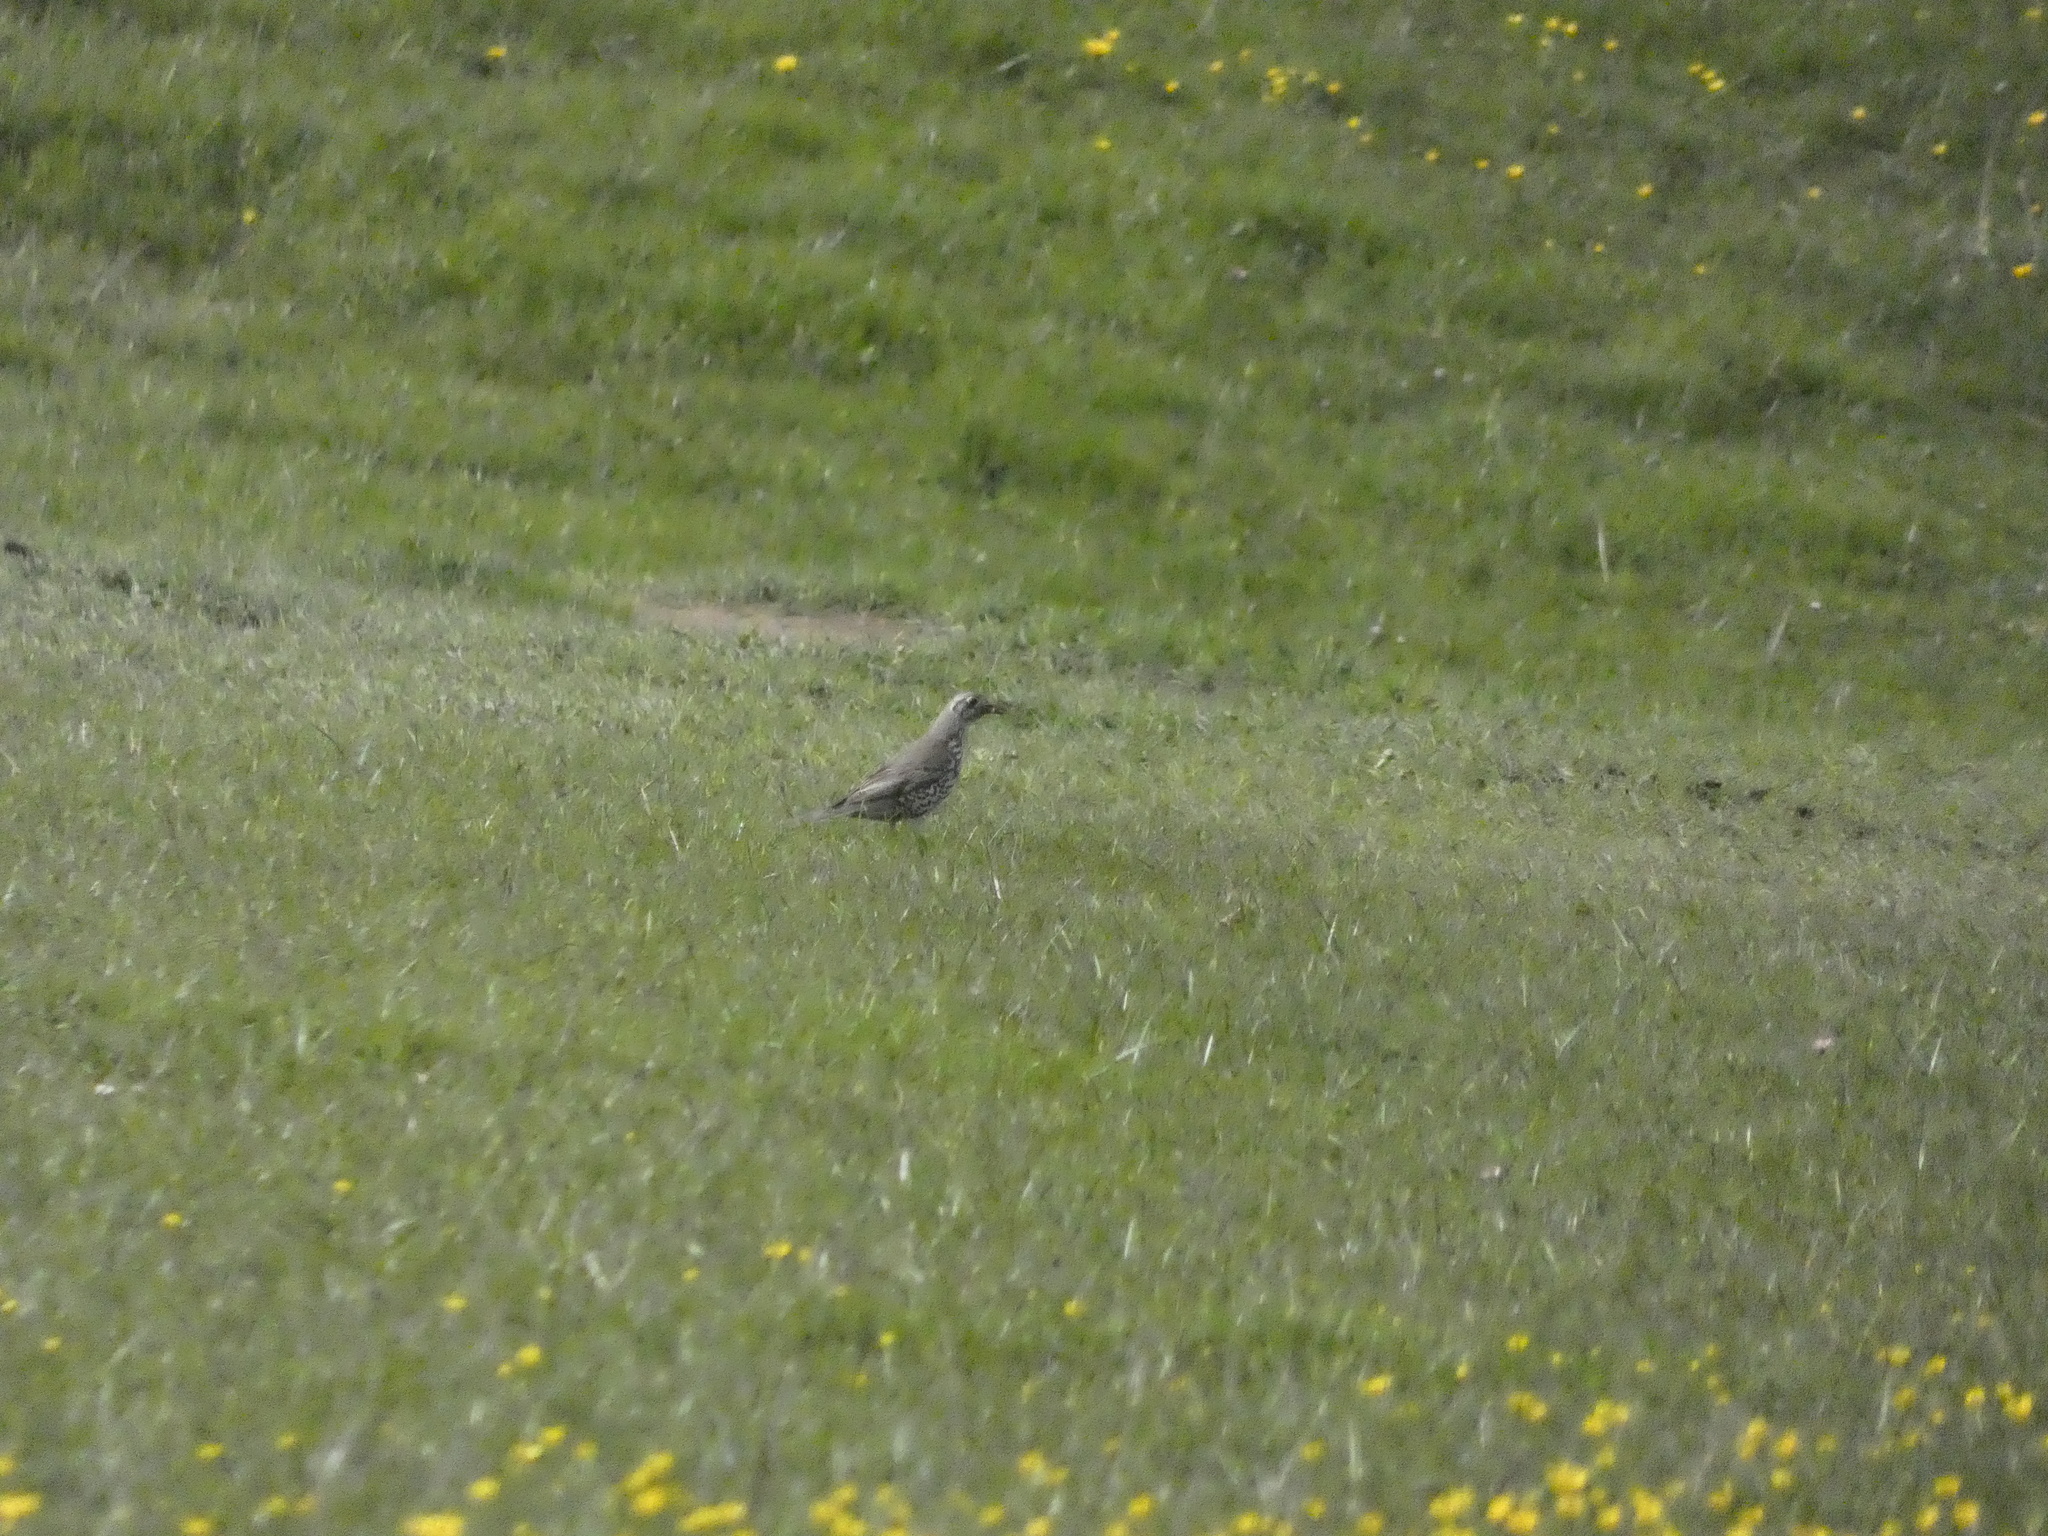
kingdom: Animalia
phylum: Chordata
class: Aves
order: Passeriformes
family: Turdidae
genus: Turdus
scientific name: Turdus viscivorus
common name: Mistle thrush
